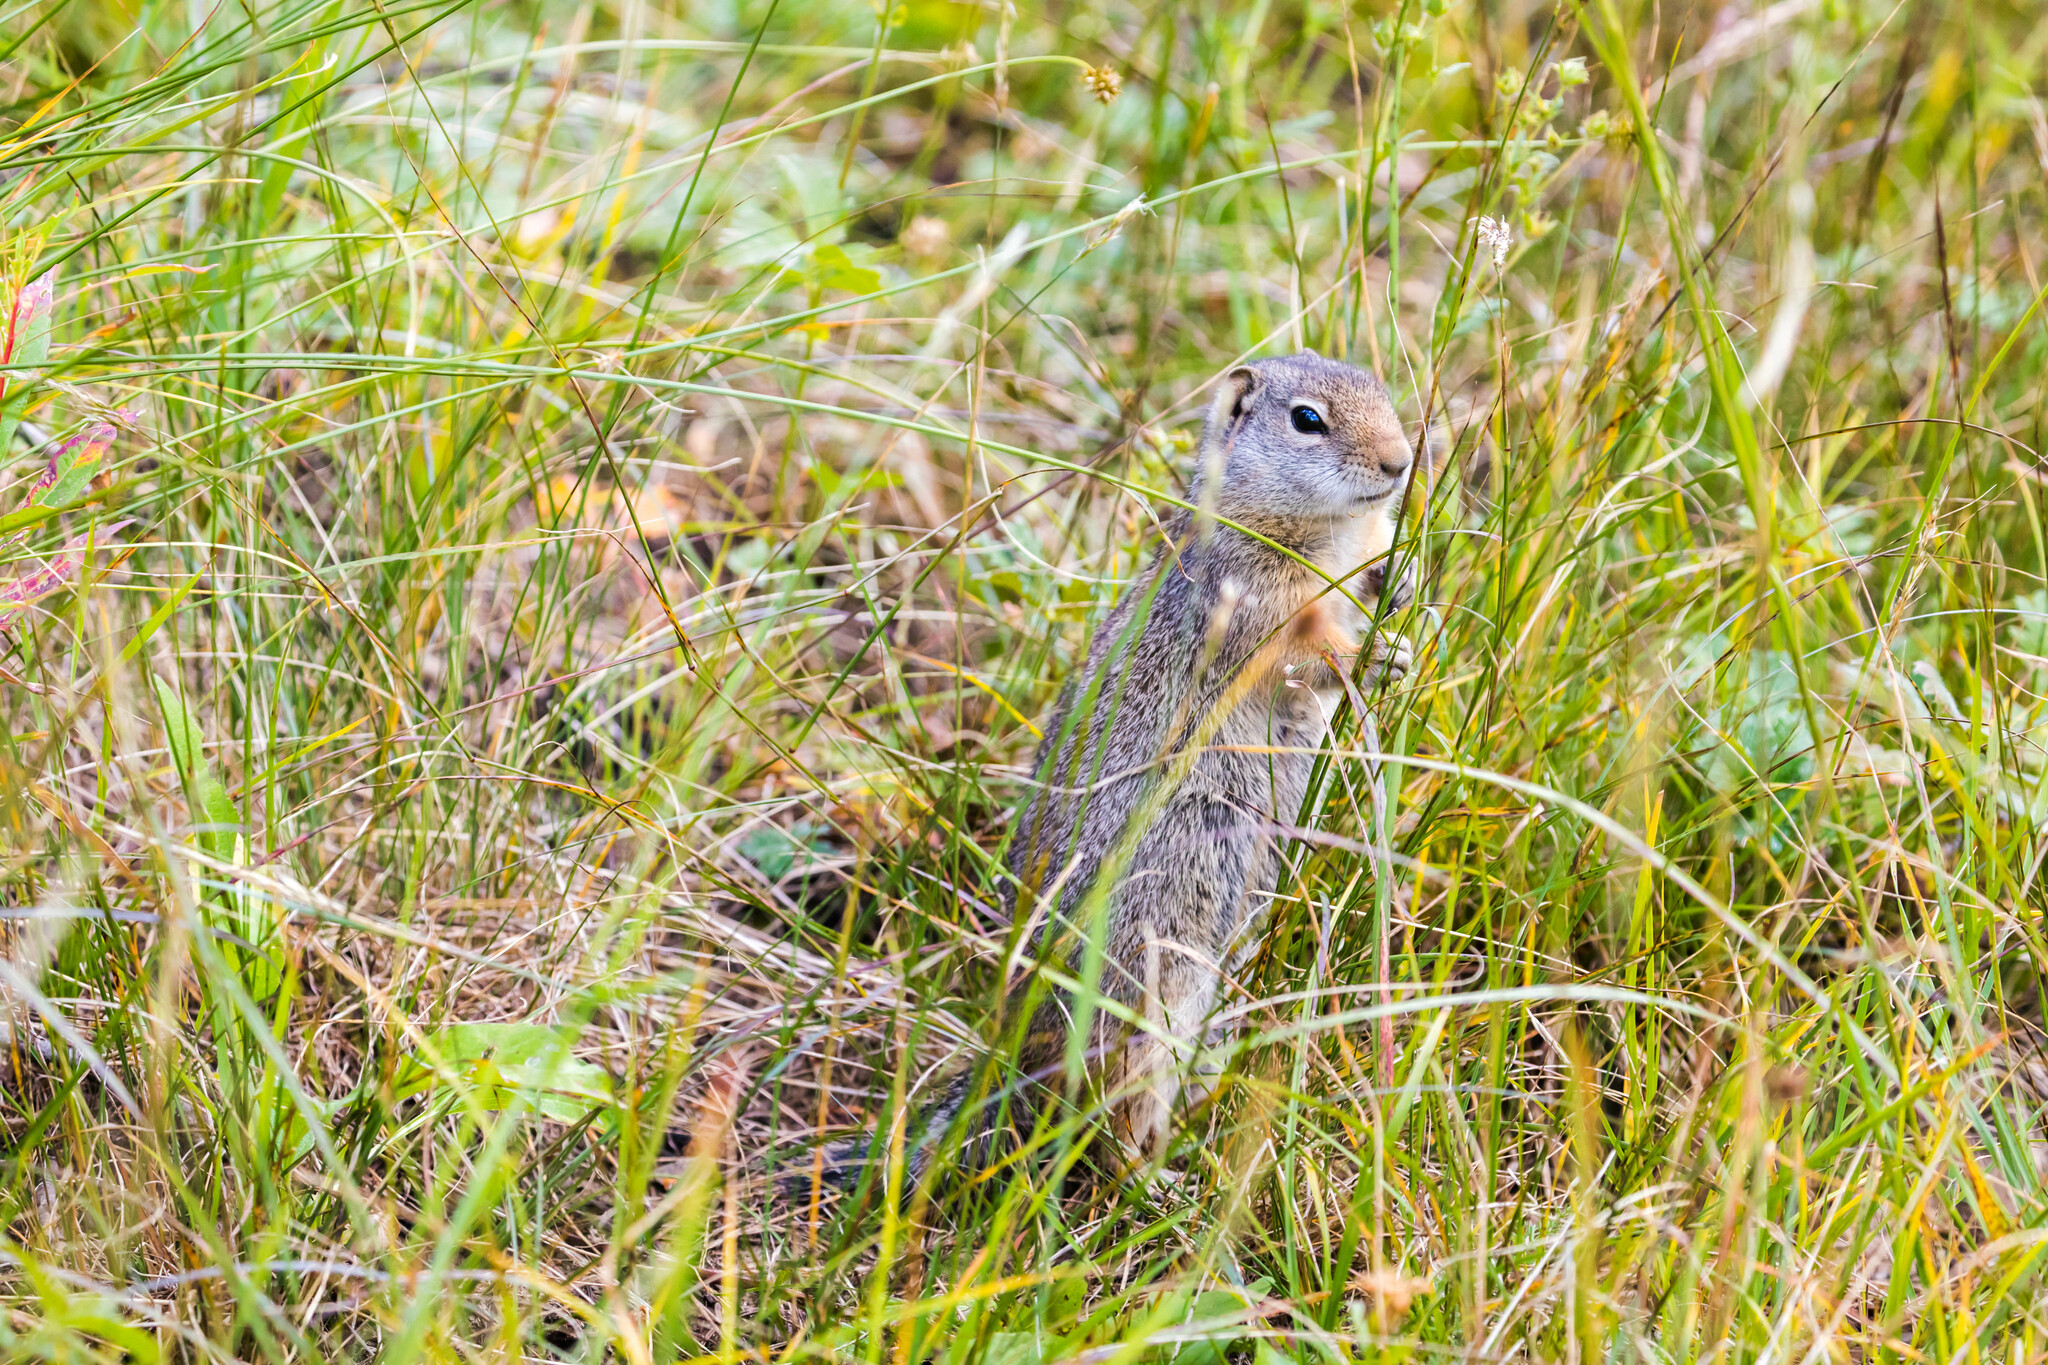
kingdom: Animalia
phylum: Chordata
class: Mammalia
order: Rodentia
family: Sciuridae
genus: Urocitellus
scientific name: Urocitellus armatus
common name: Uinta ground squirrel
